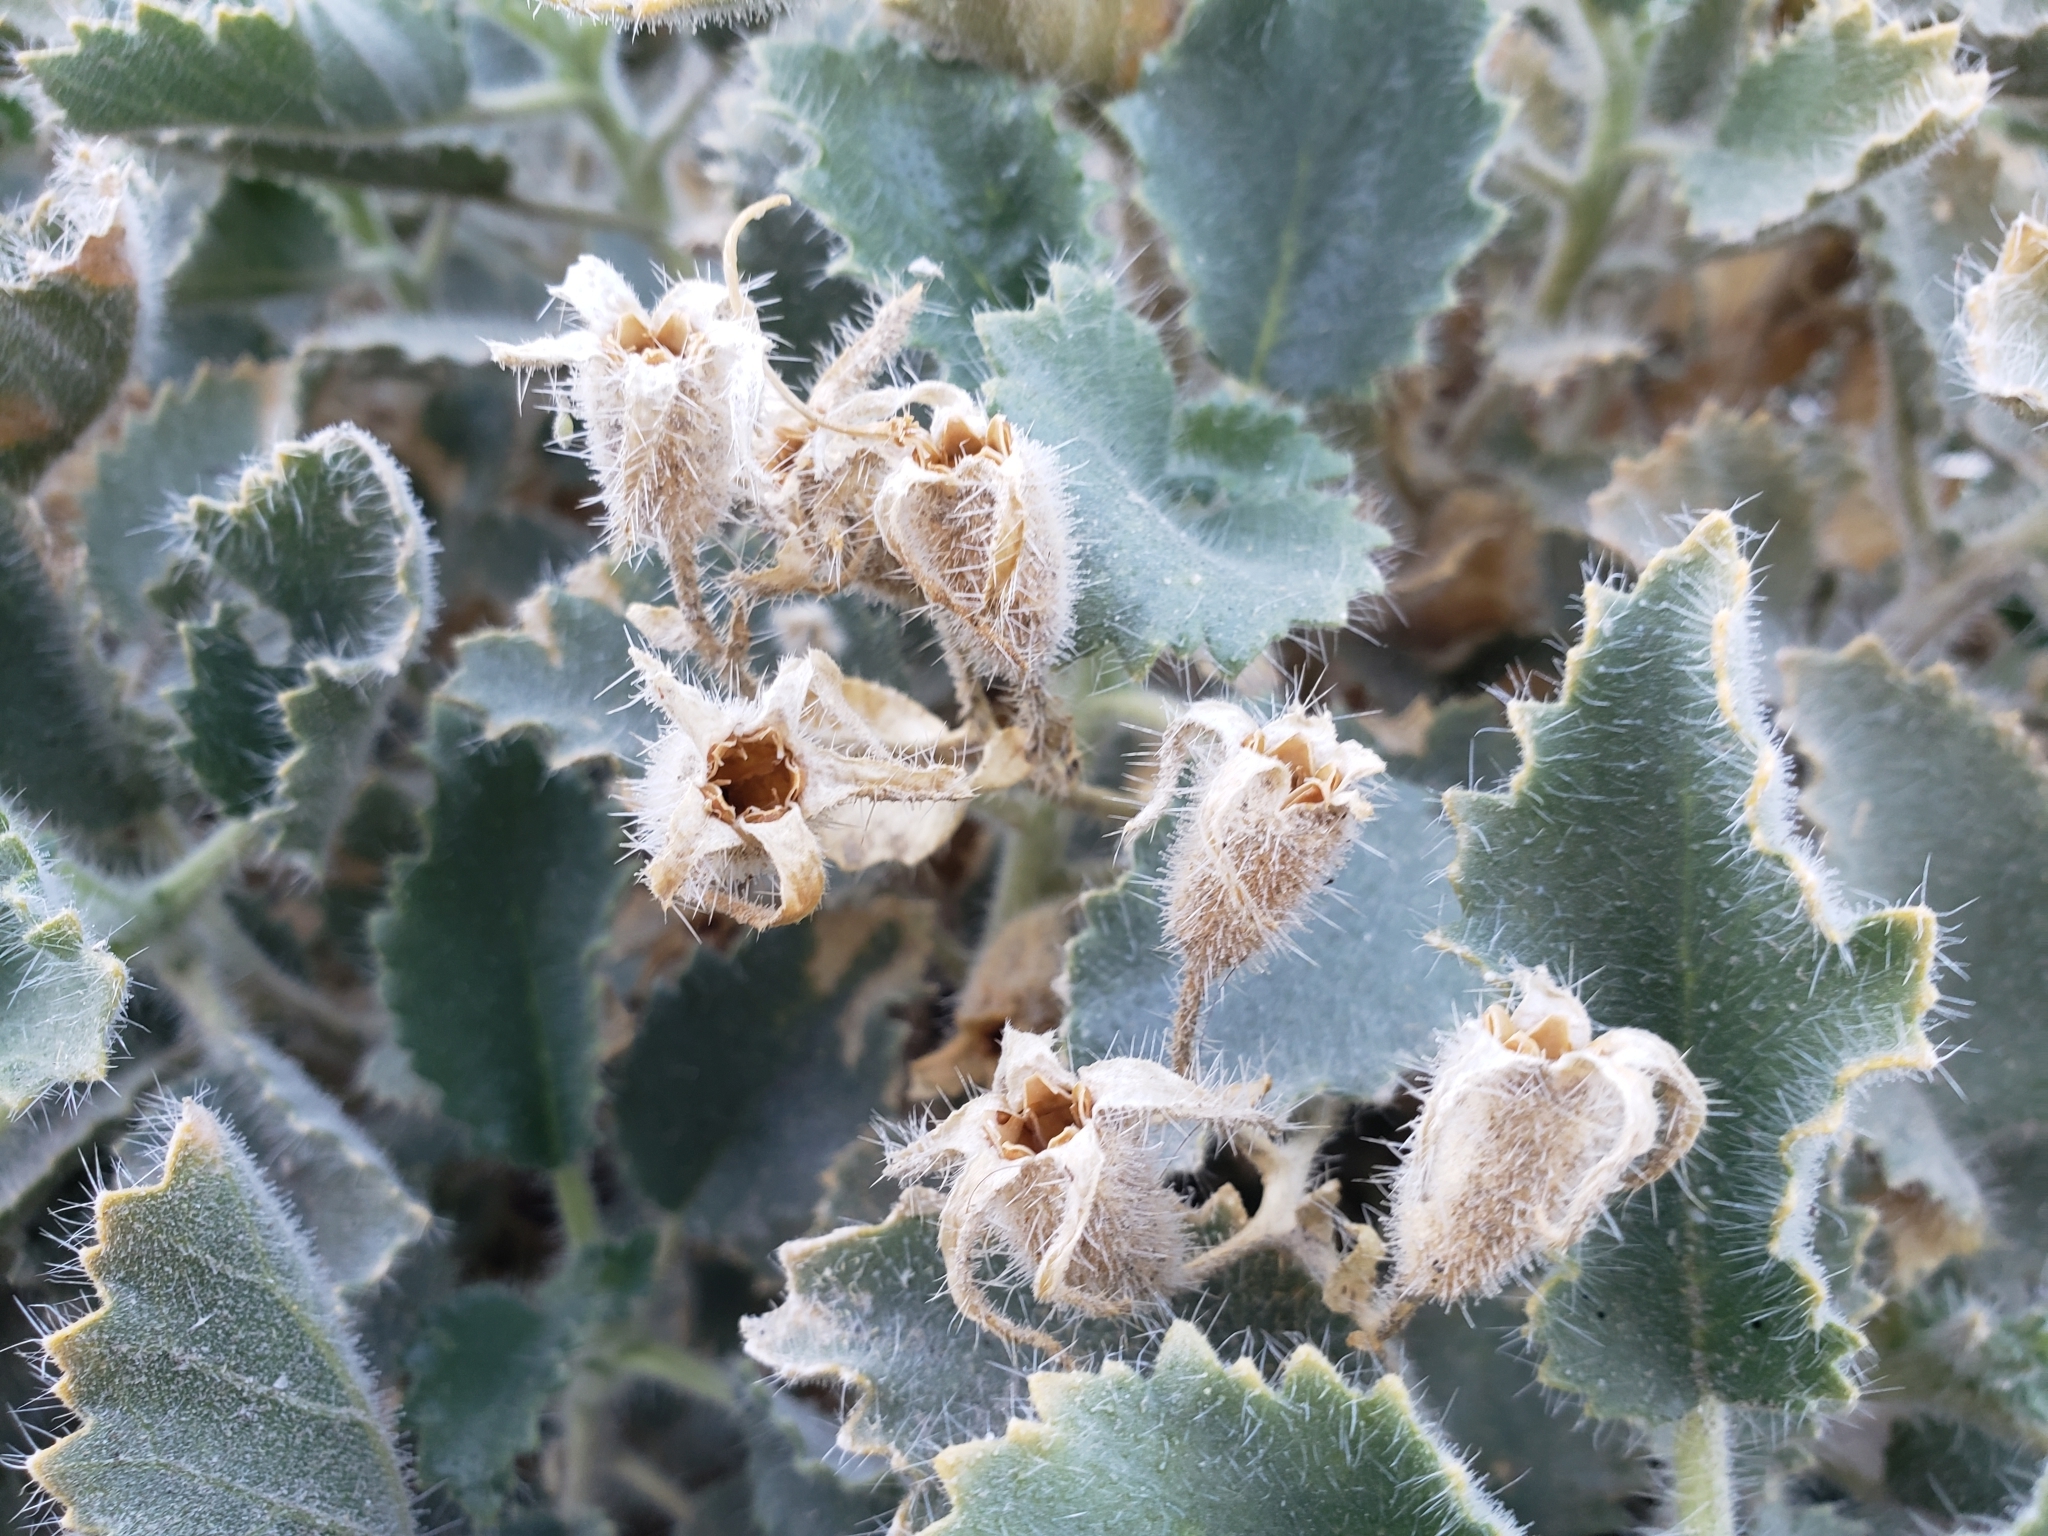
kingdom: Plantae
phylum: Tracheophyta
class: Magnoliopsida
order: Cornales
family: Loasaceae
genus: Eucnide
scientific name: Eucnide urens
